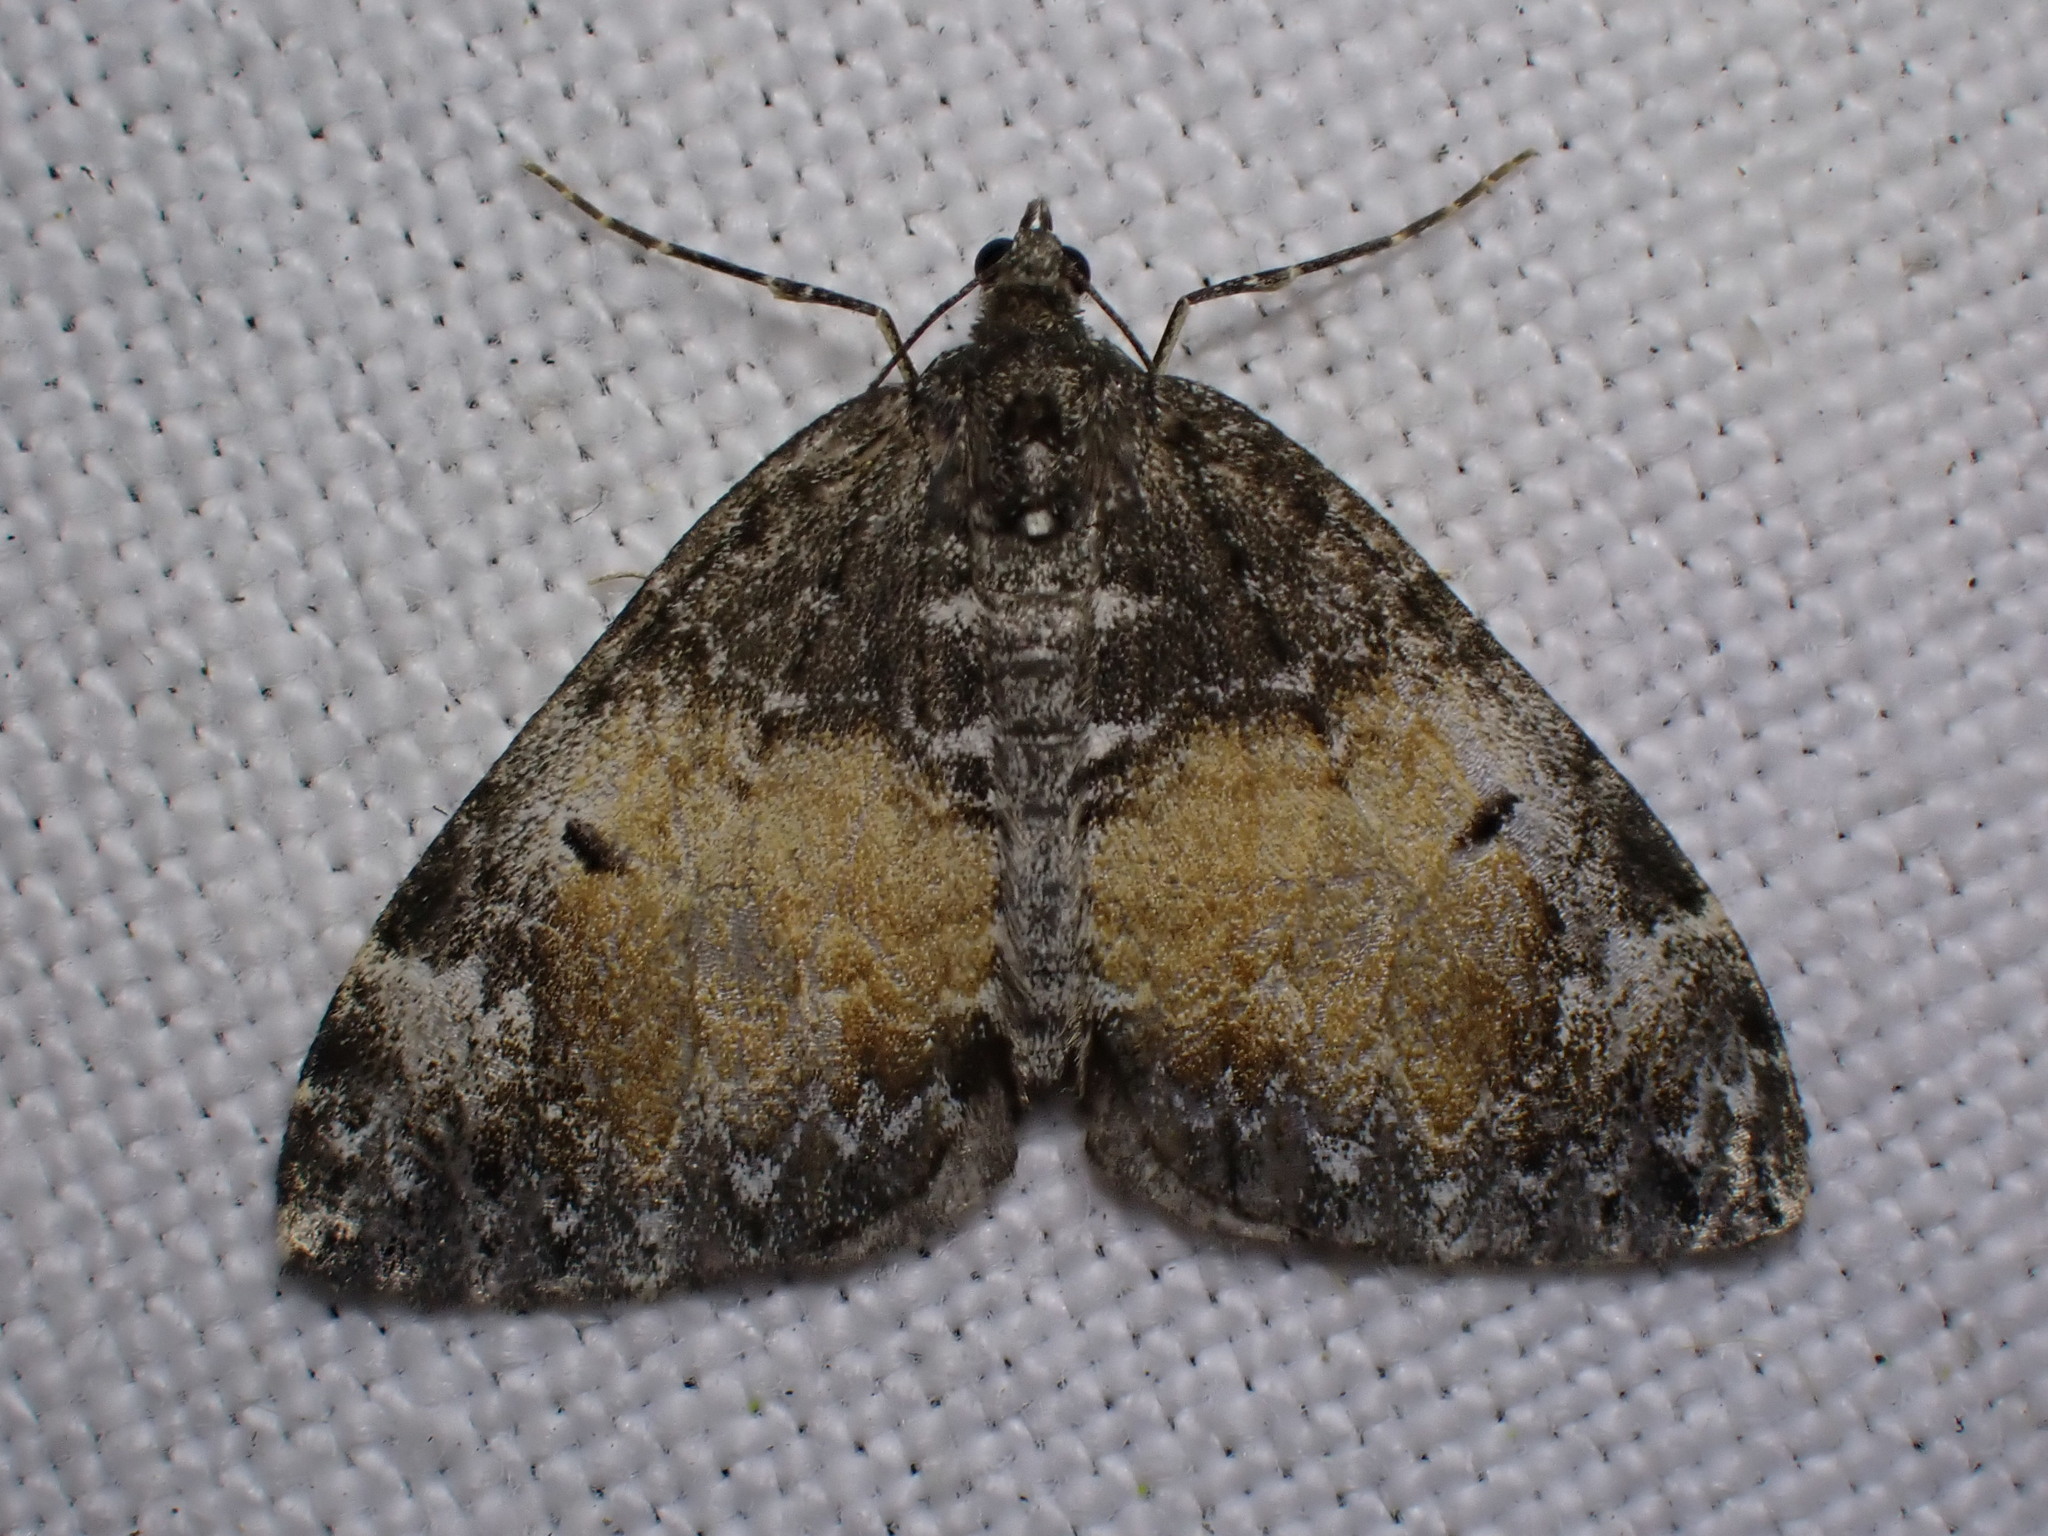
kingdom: Animalia
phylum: Arthropoda
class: Insecta
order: Lepidoptera
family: Geometridae
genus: Dysstroma
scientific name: Dysstroma truncata
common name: Common marbled carpet
